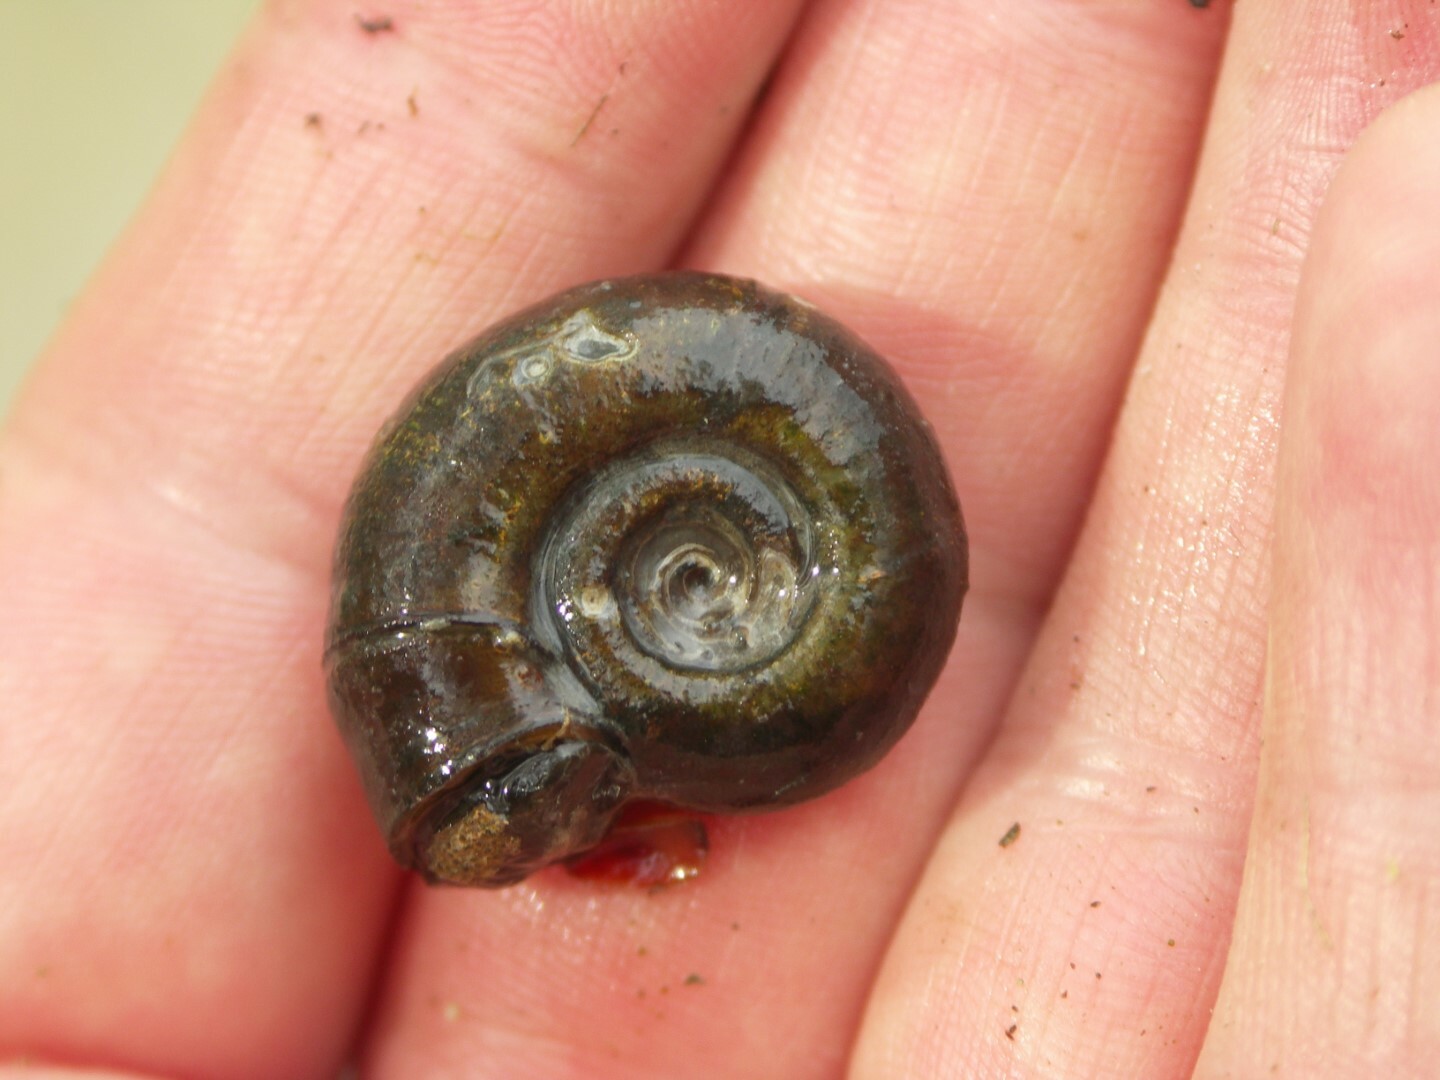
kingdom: Animalia
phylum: Mollusca
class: Gastropoda
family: Planorbidae
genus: Planorbarius
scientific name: Planorbarius corneus
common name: Great ramshorn
